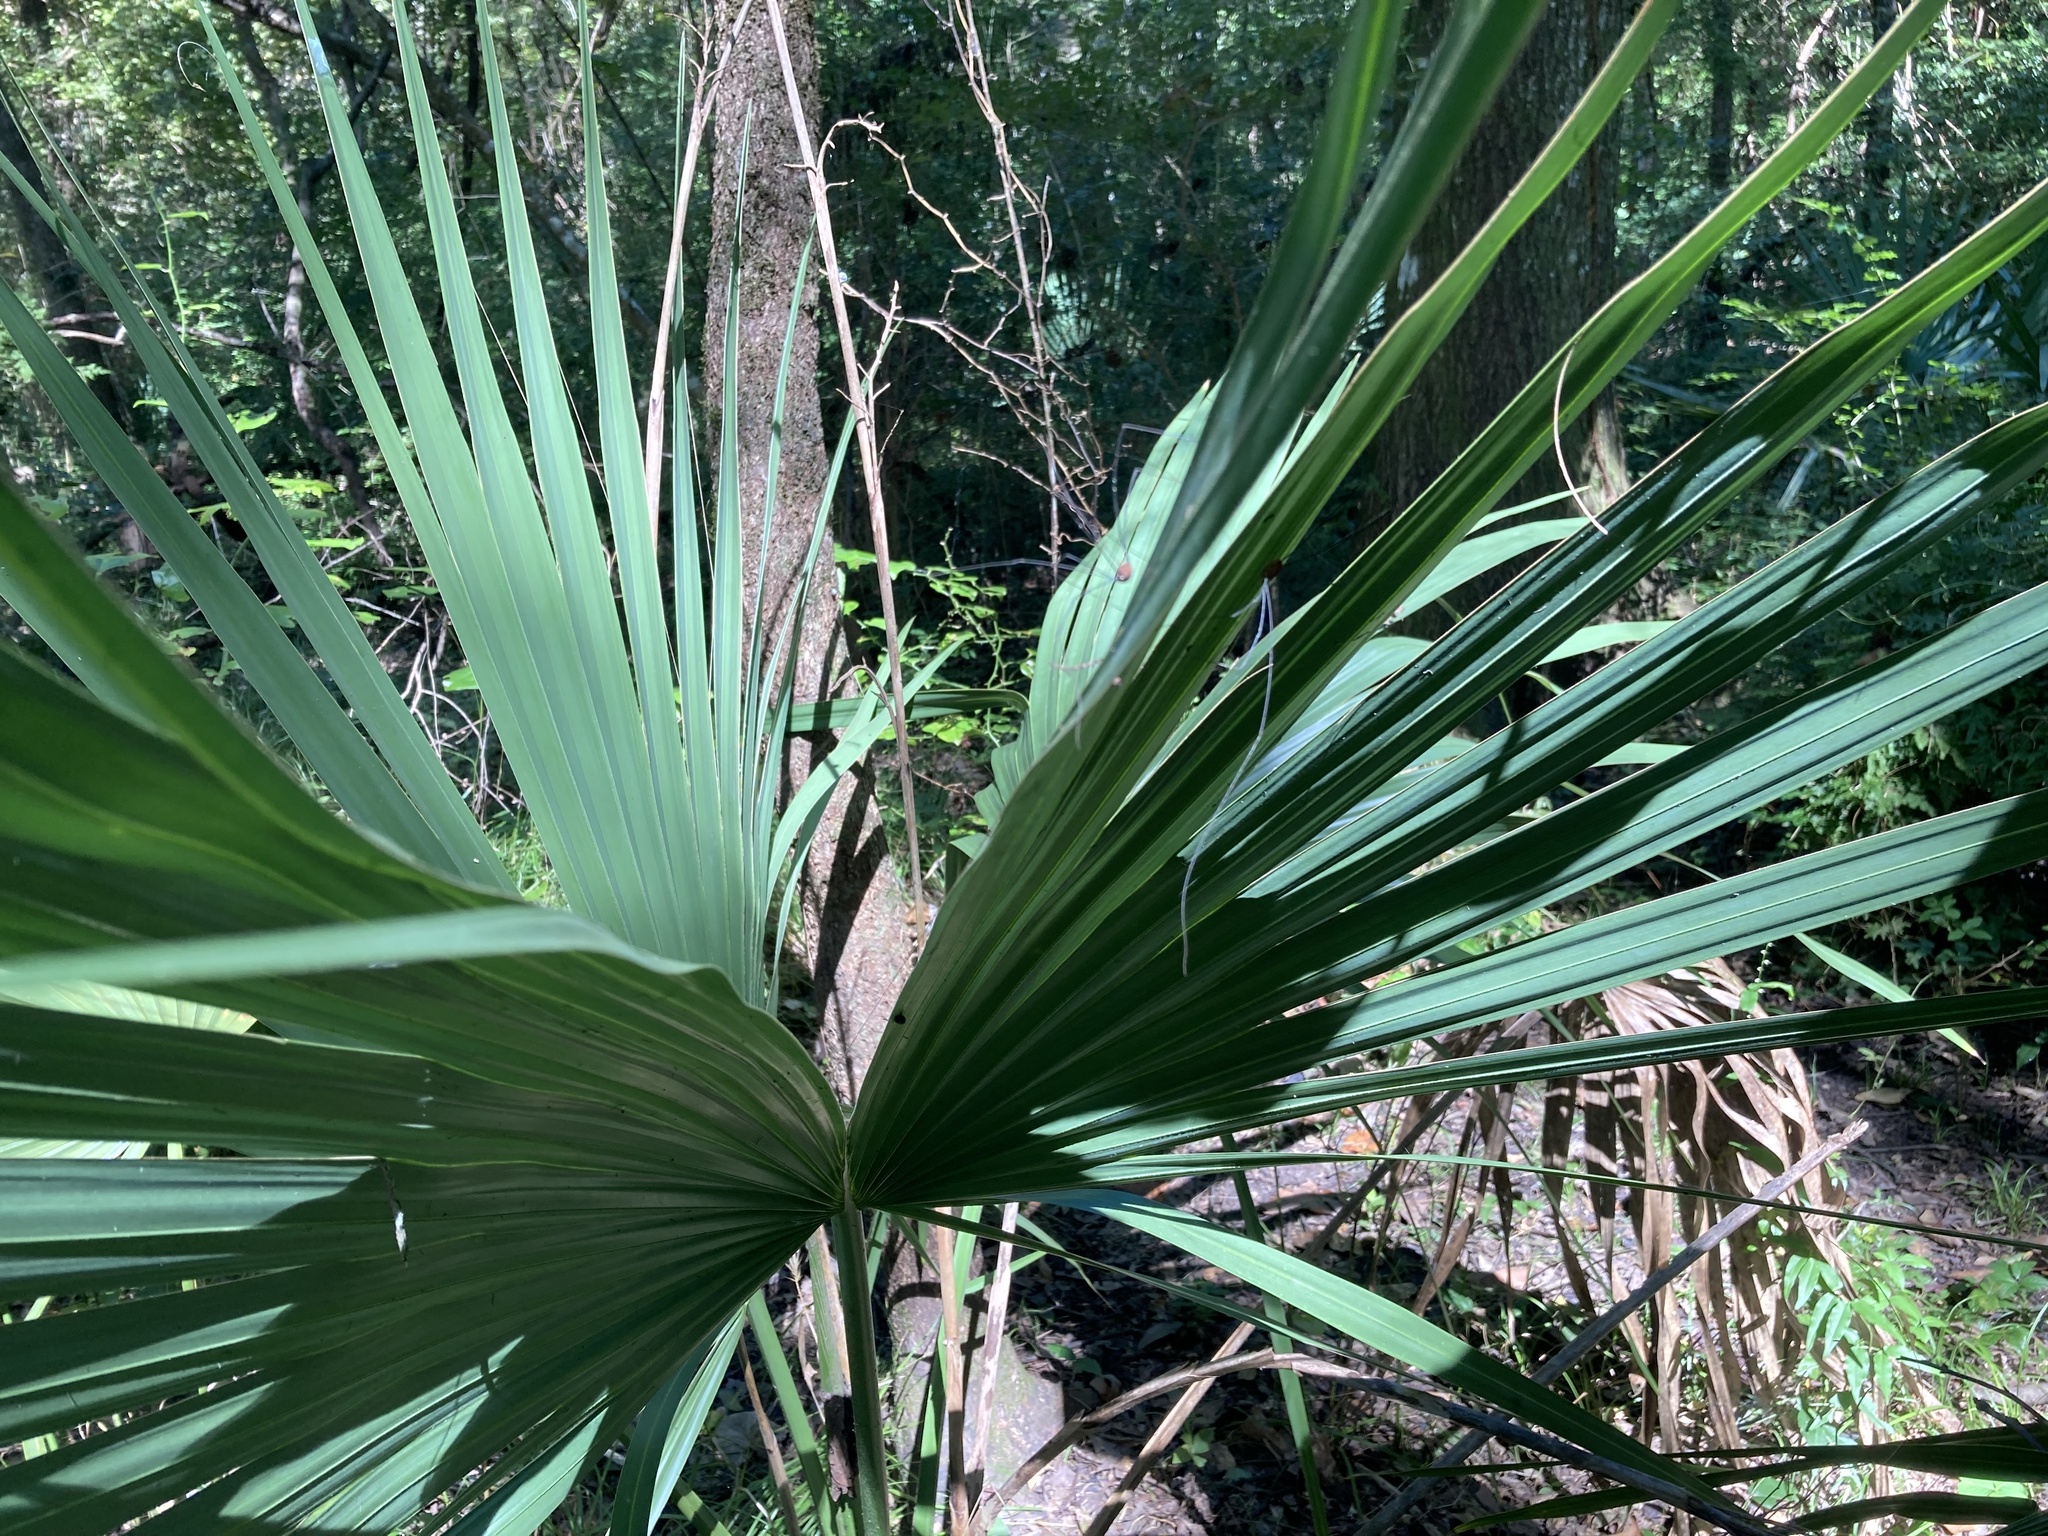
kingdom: Plantae
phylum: Tracheophyta
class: Liliopsida
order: Arecales
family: Arecaceae
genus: Sabal
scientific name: Sabal minor
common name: Dwarf palmetto
